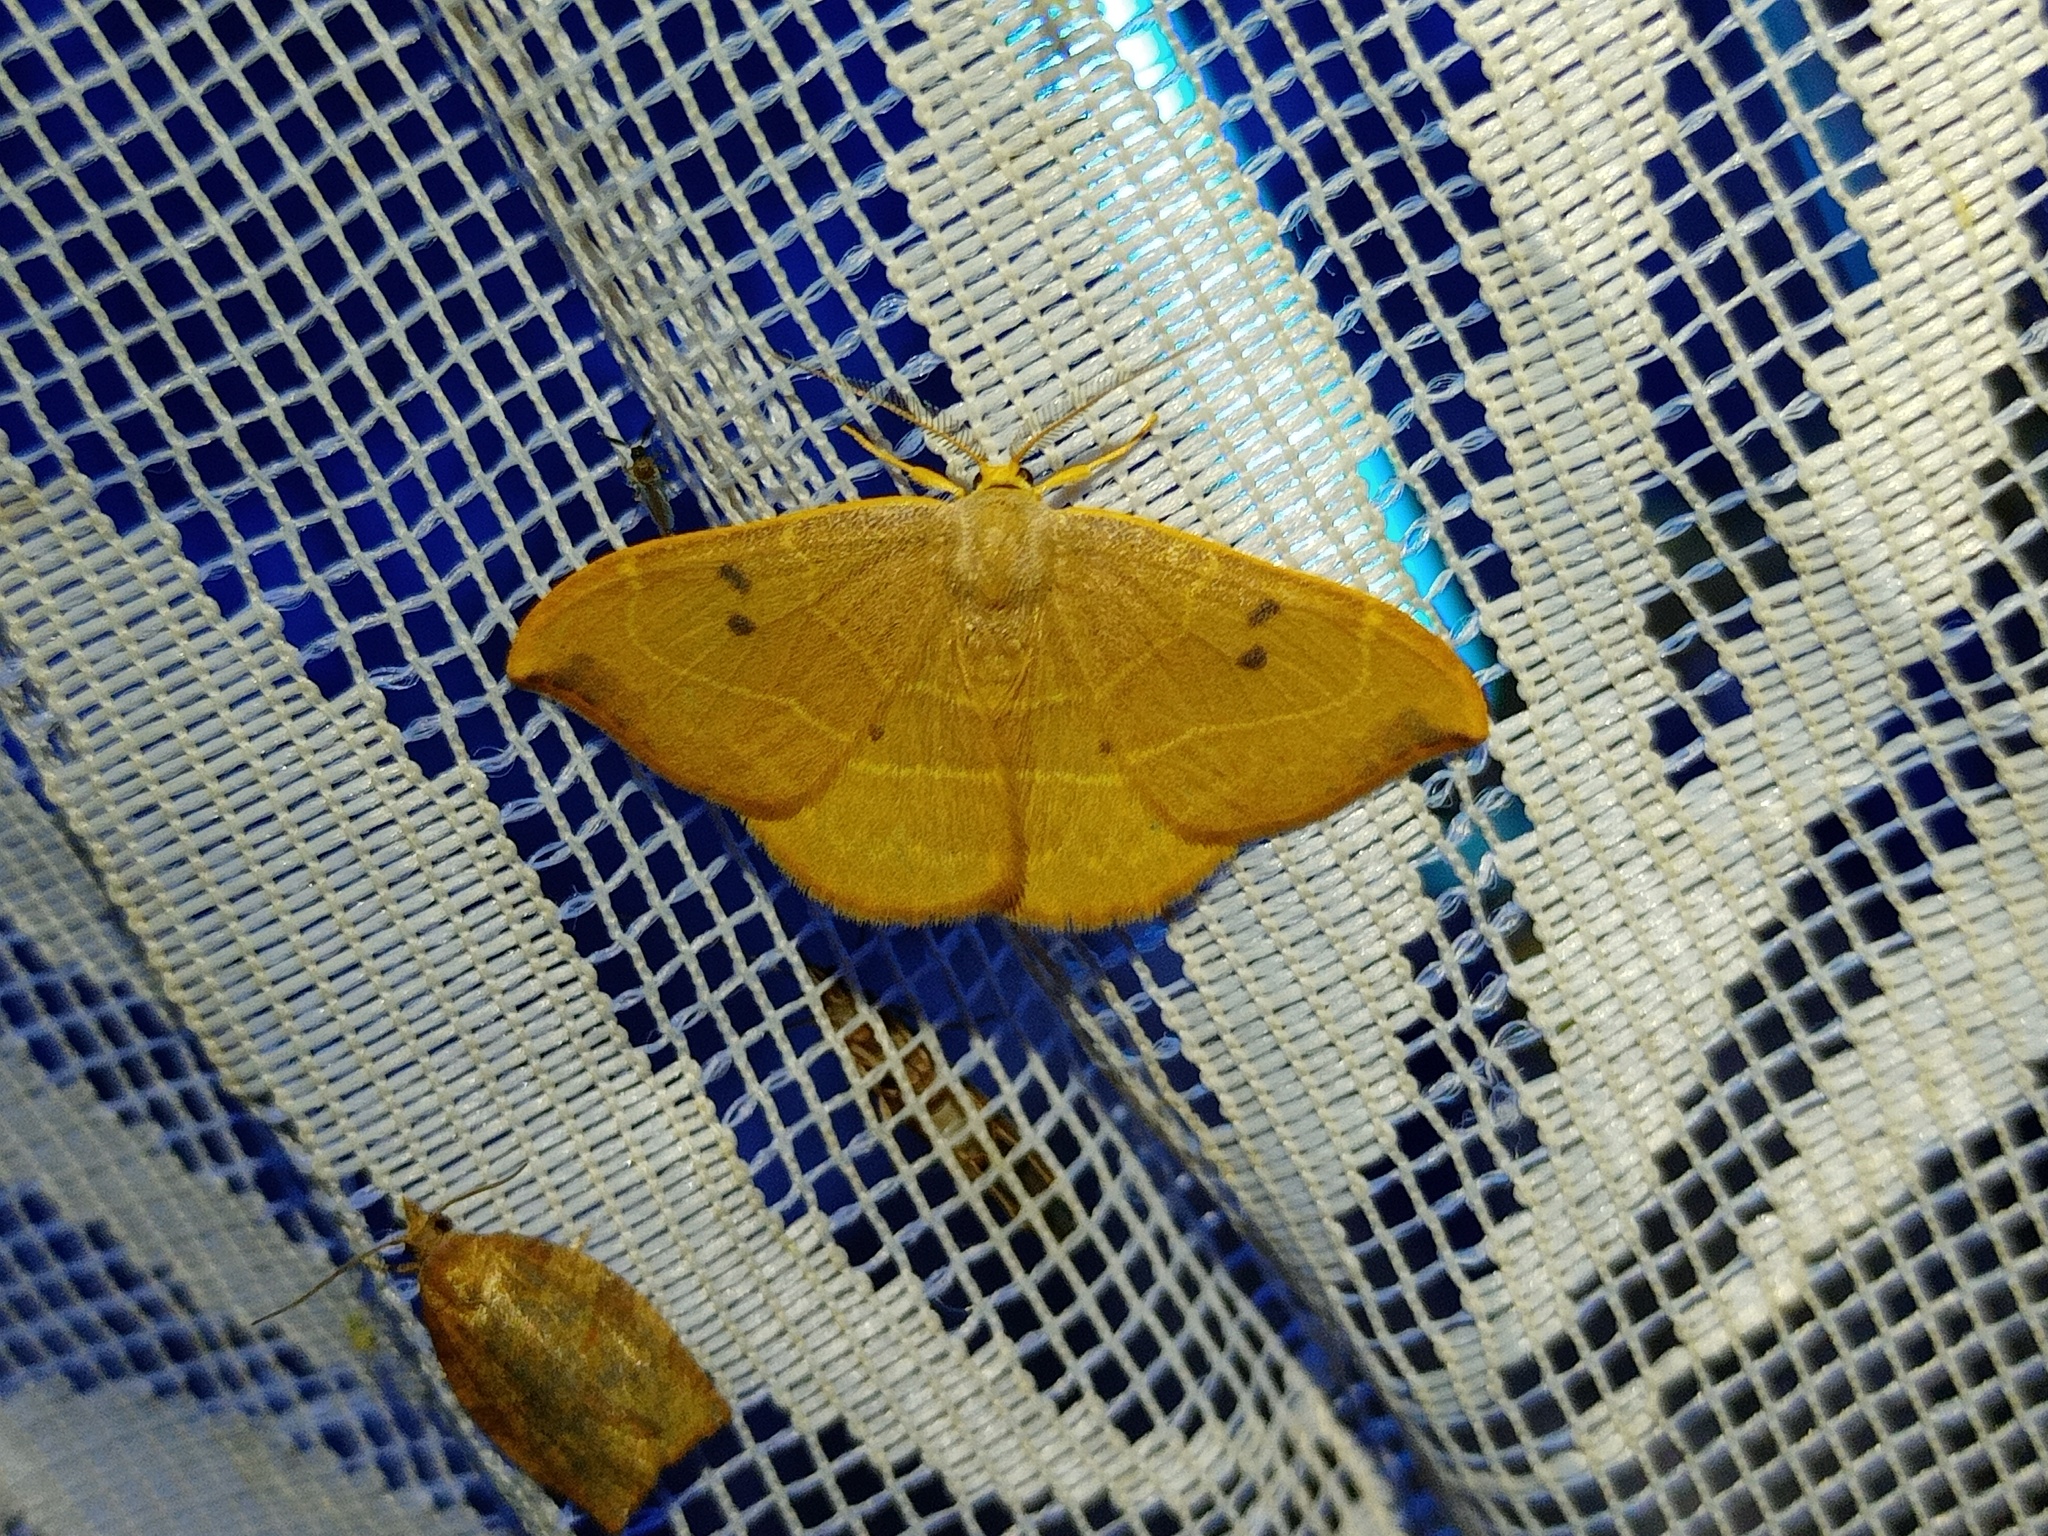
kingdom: Animalia
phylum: Arthropoda
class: Insecta
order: Lepidoptera
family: Drepanidae
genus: Watsonalla
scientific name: Watsonalla binaria
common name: Oak hook-tip
